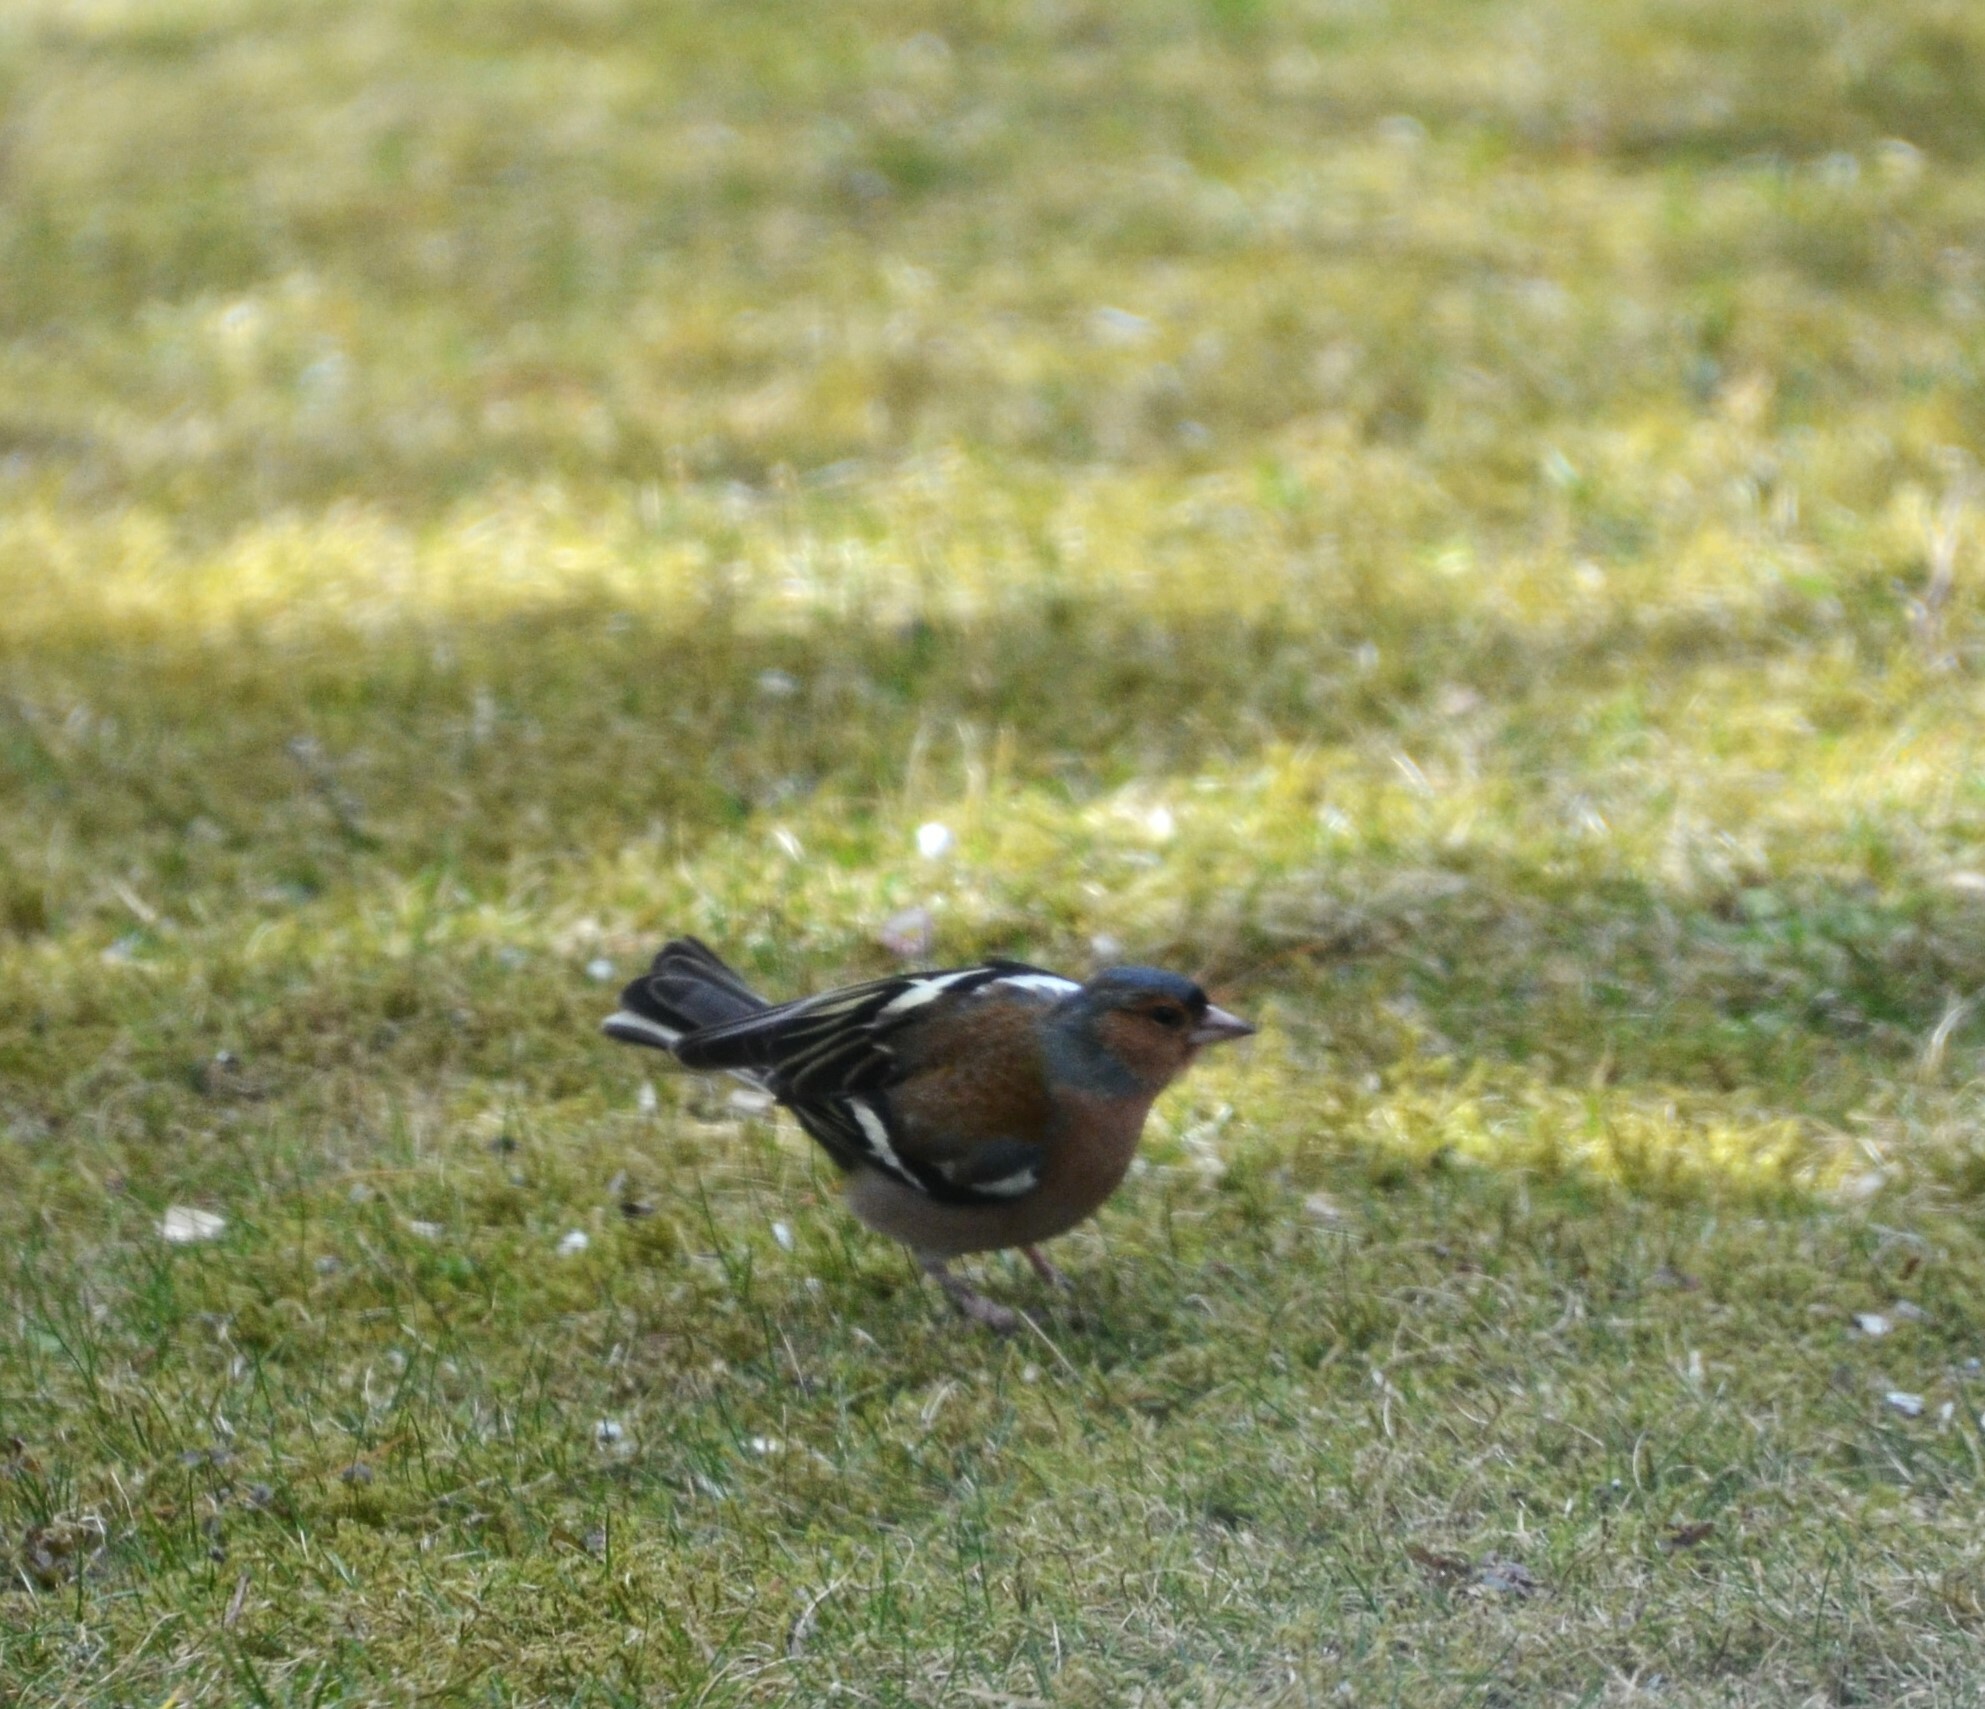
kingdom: Animalia
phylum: Chordata
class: Aves
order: Passeriformes
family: Fringillidae
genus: Fringilla
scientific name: Fringilla coelebs
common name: Common chaffinch
